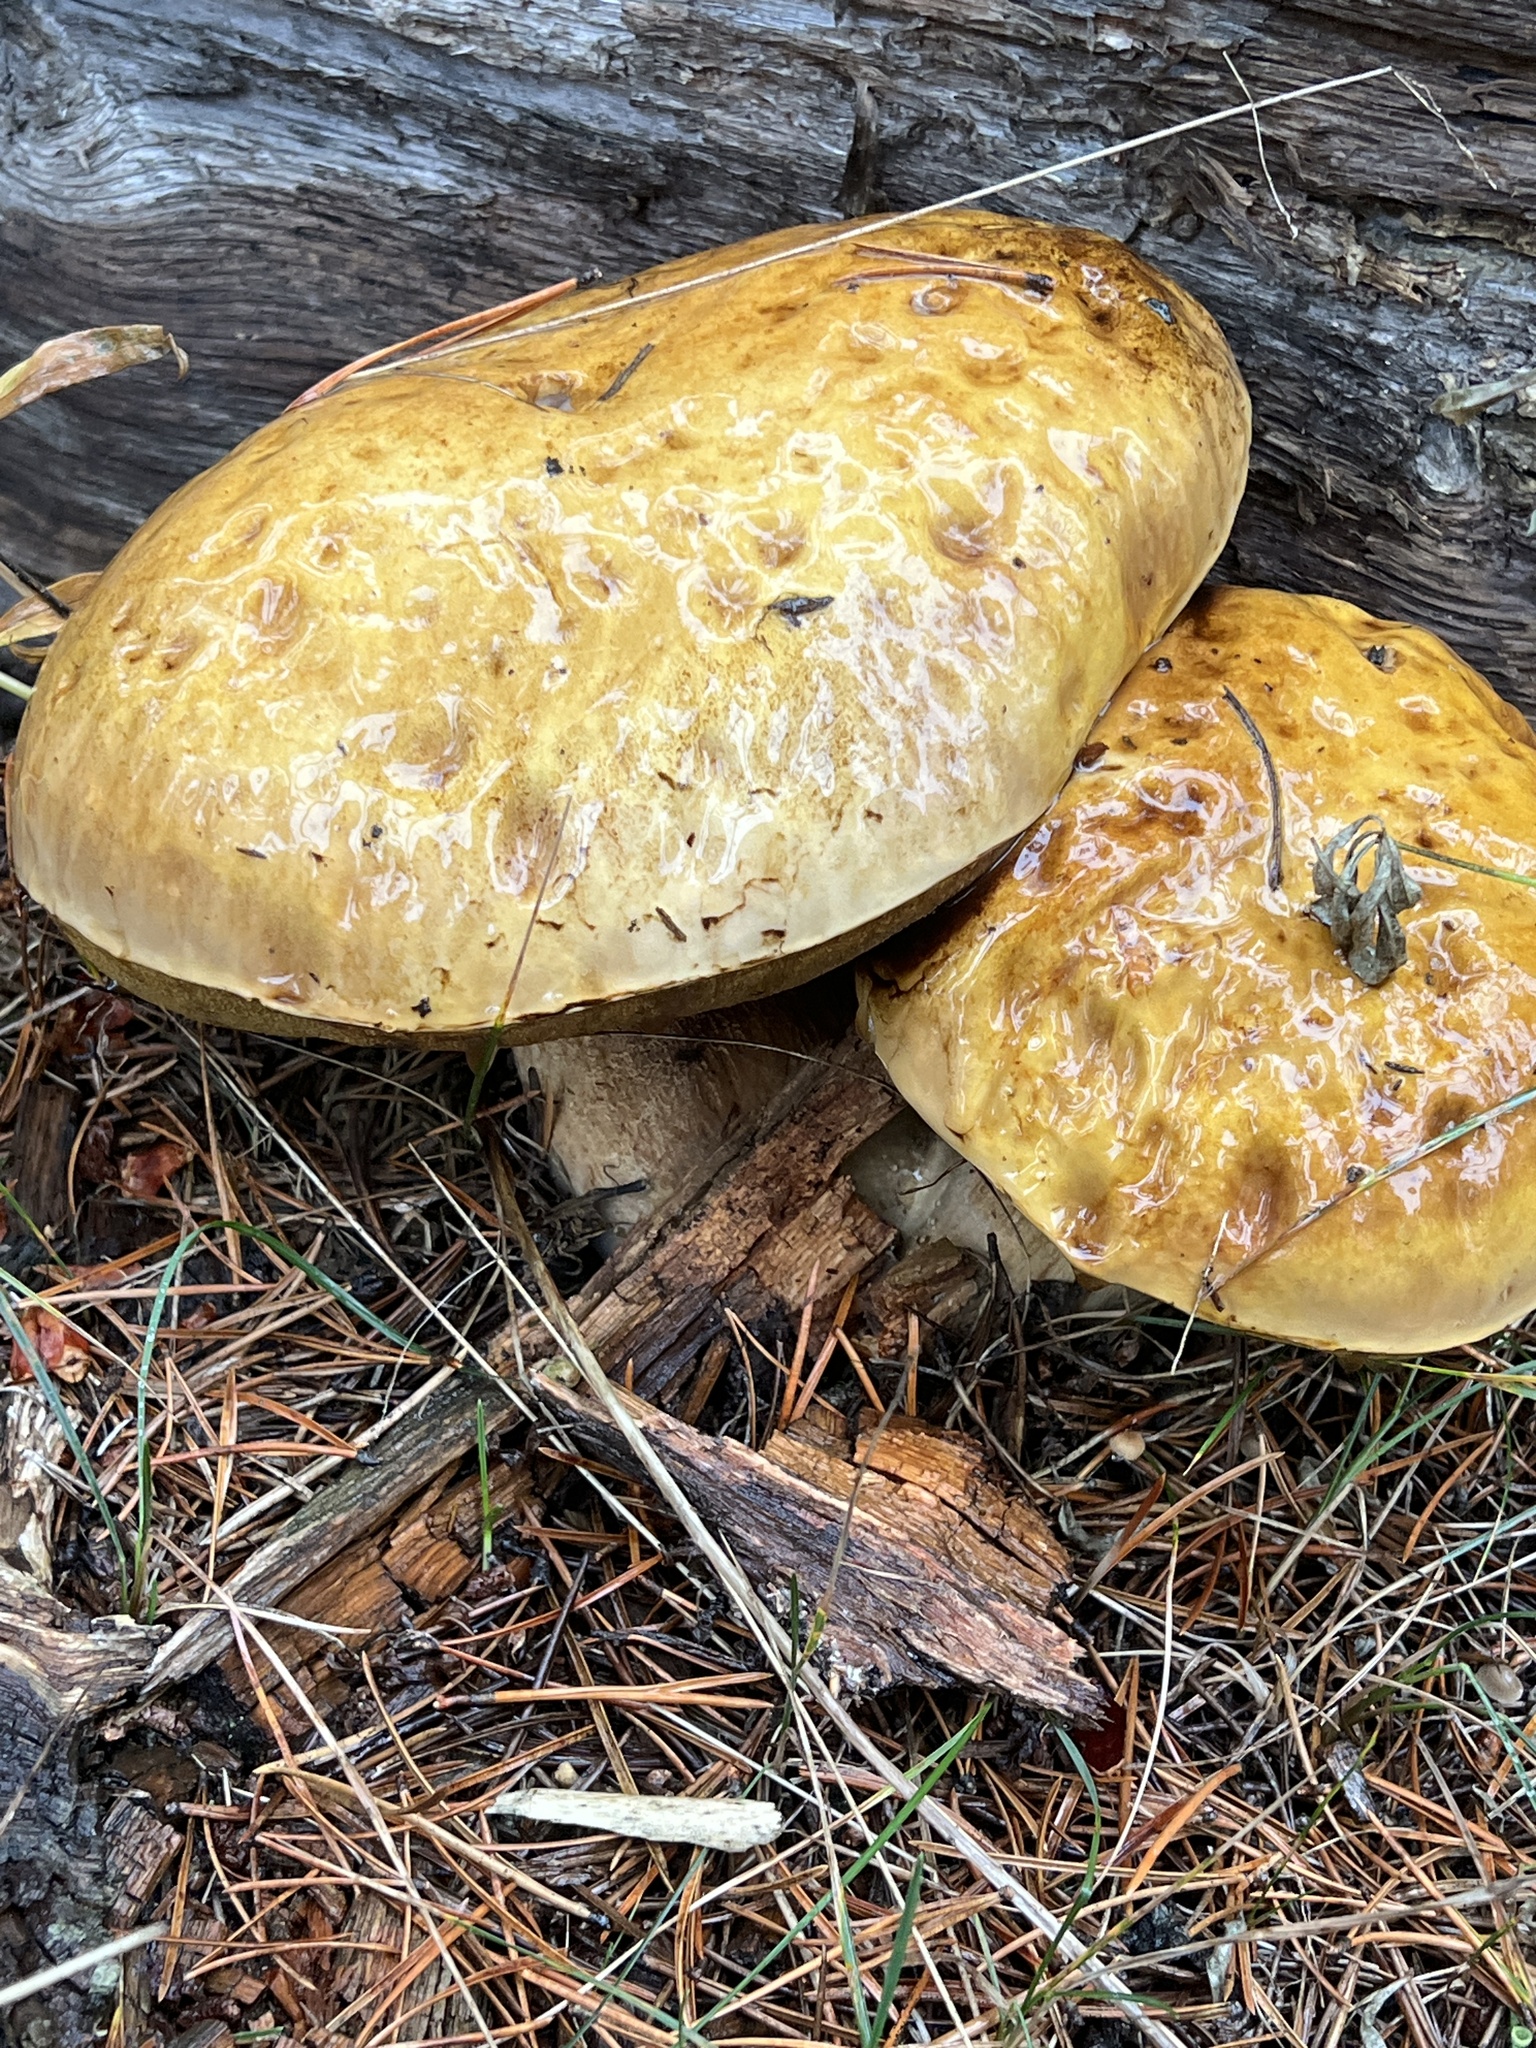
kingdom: Fungi
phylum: Basidiomycota
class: Agaricomycetes
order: Boletales
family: Boletaceae
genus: Boletus
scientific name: Boletus edulis
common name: Cep
